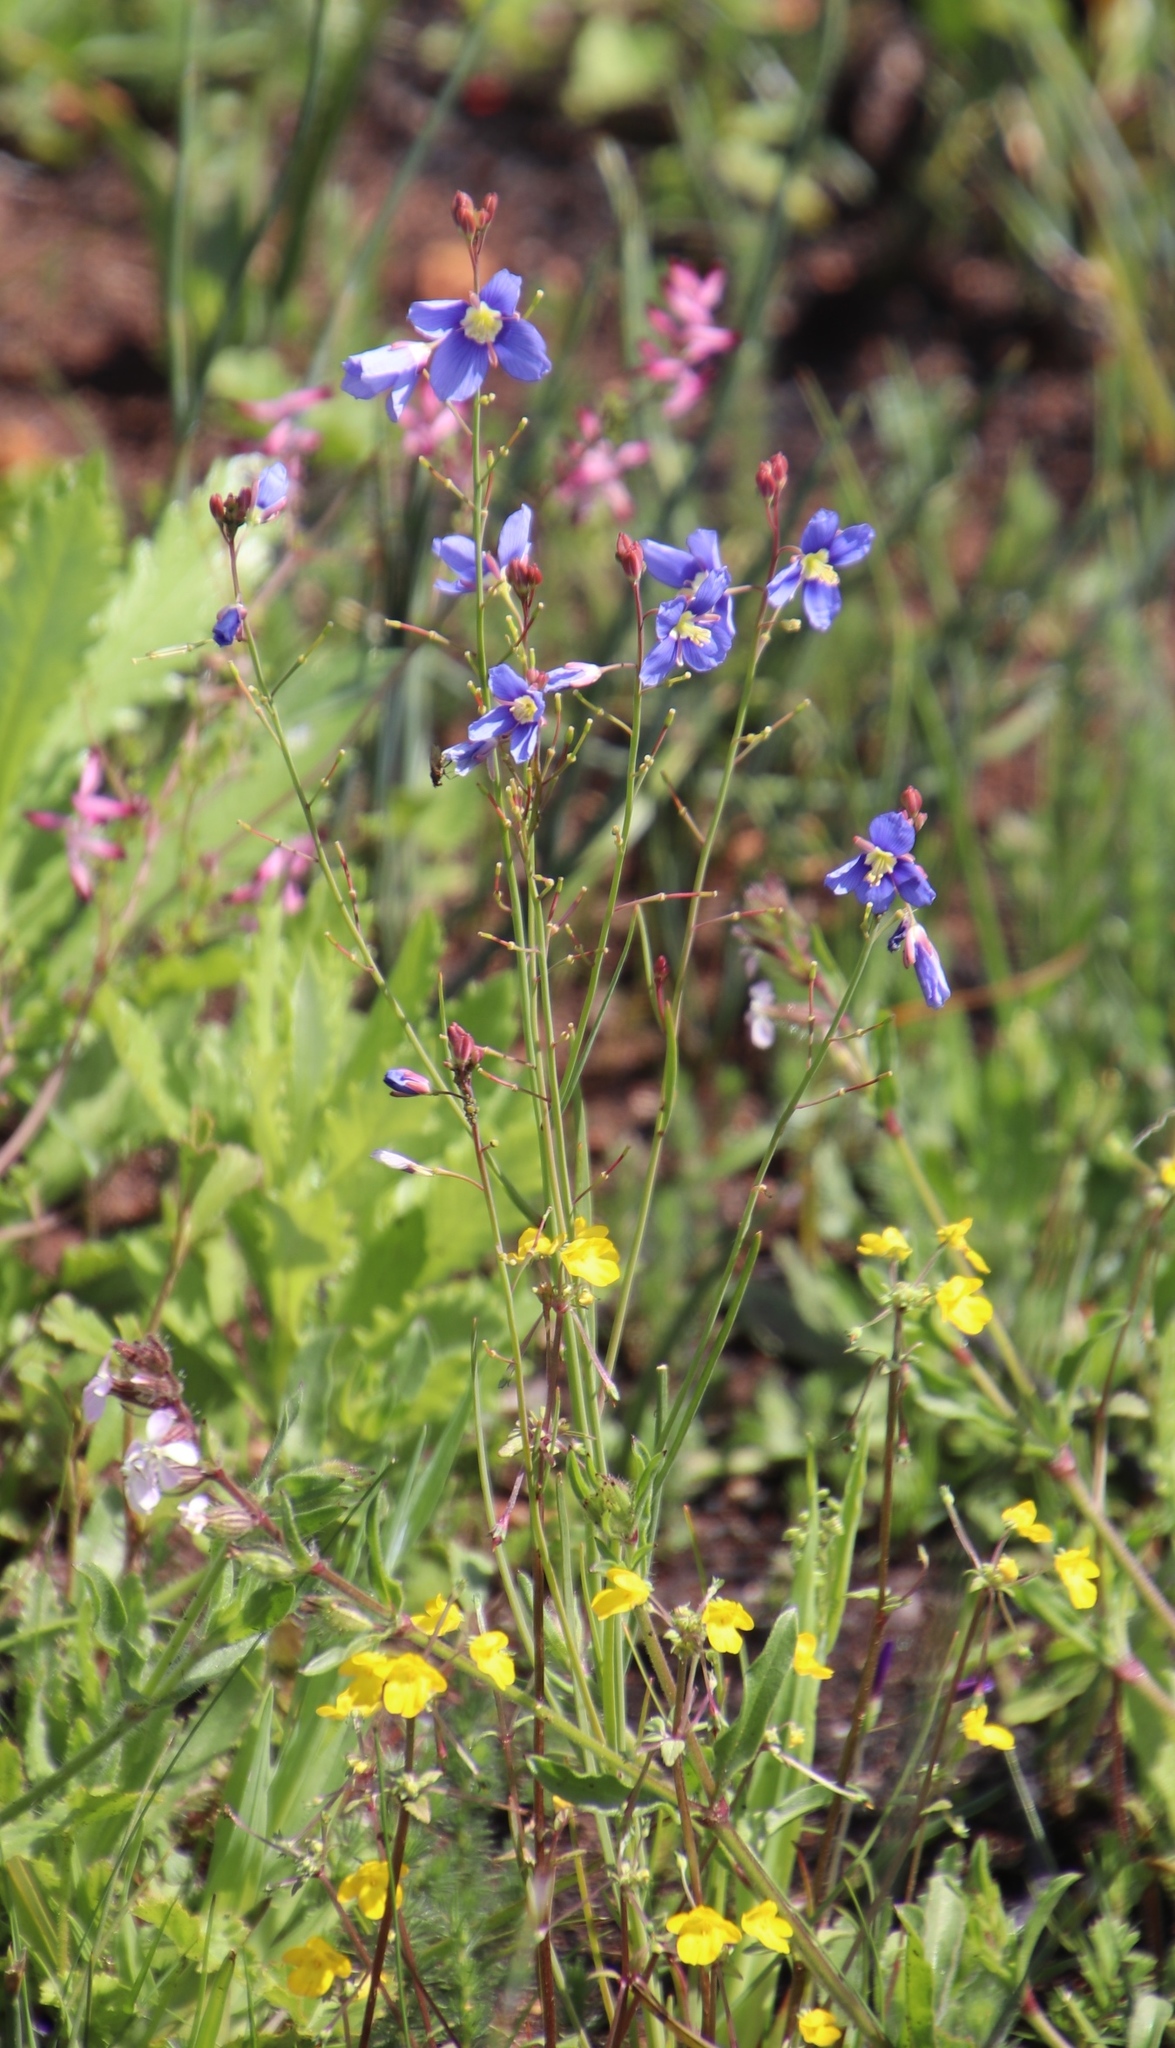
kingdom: Plantae
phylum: Tracheophyta
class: Magnoliopsida
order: Brassicales
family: Brassicaceae
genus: Heliophila
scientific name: Heliophila coronopifolia
